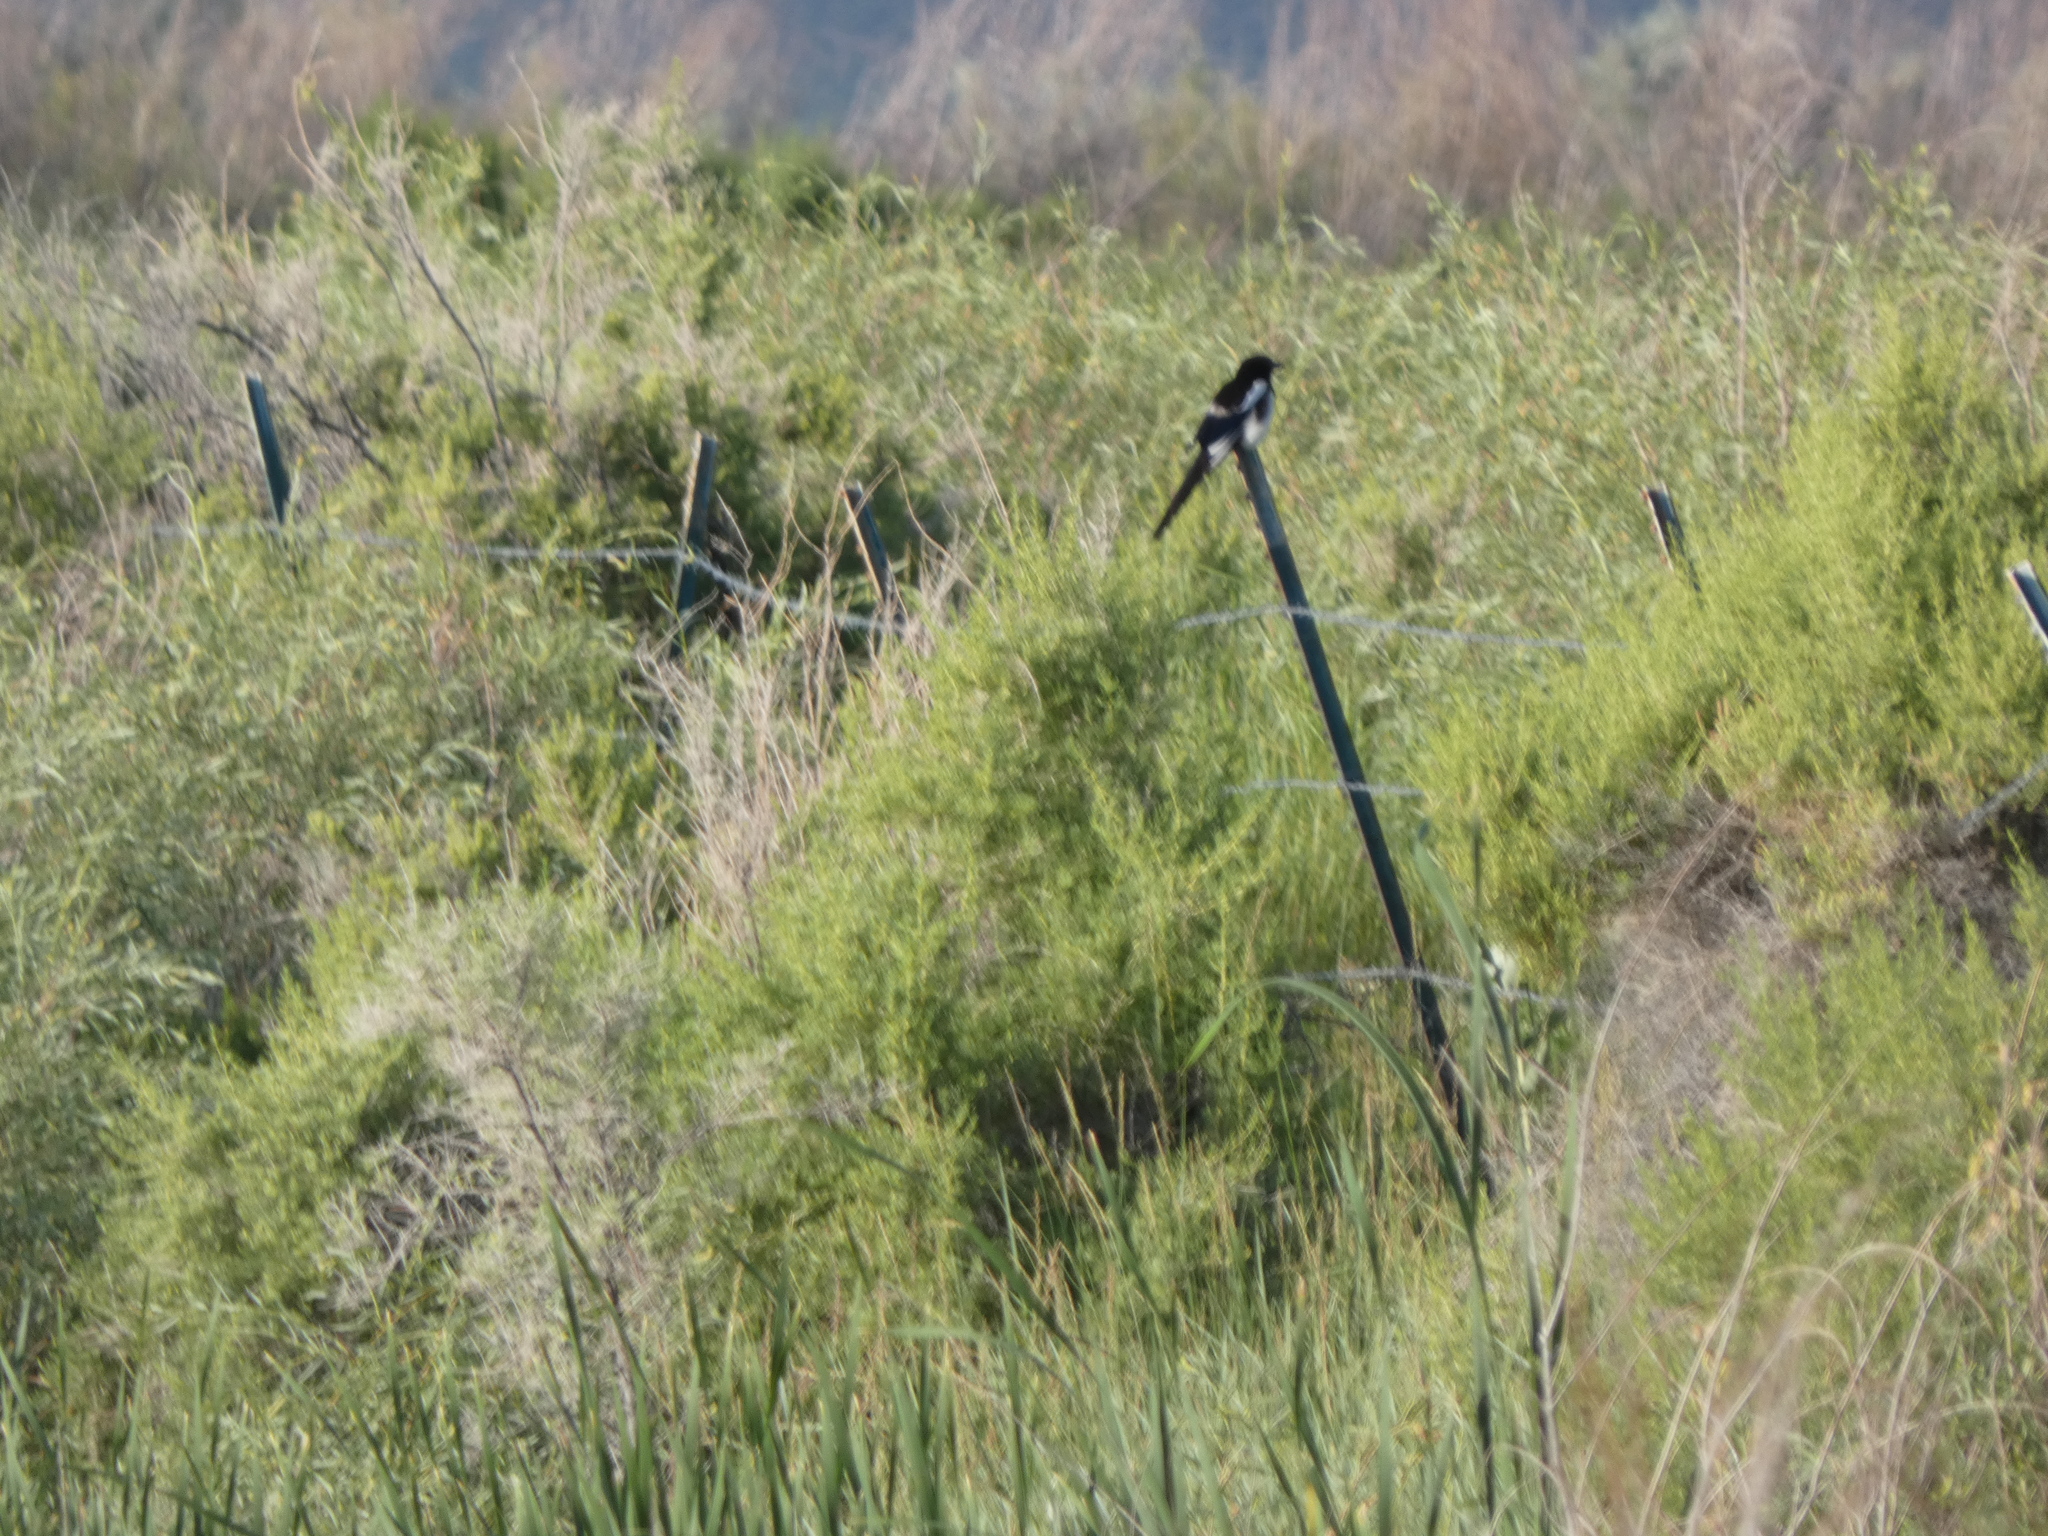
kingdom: Animalia
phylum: Chordata
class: Aves
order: Passeriformes
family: Corvidae
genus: Pica
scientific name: Pica hudsonia
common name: Black-billed magpie
